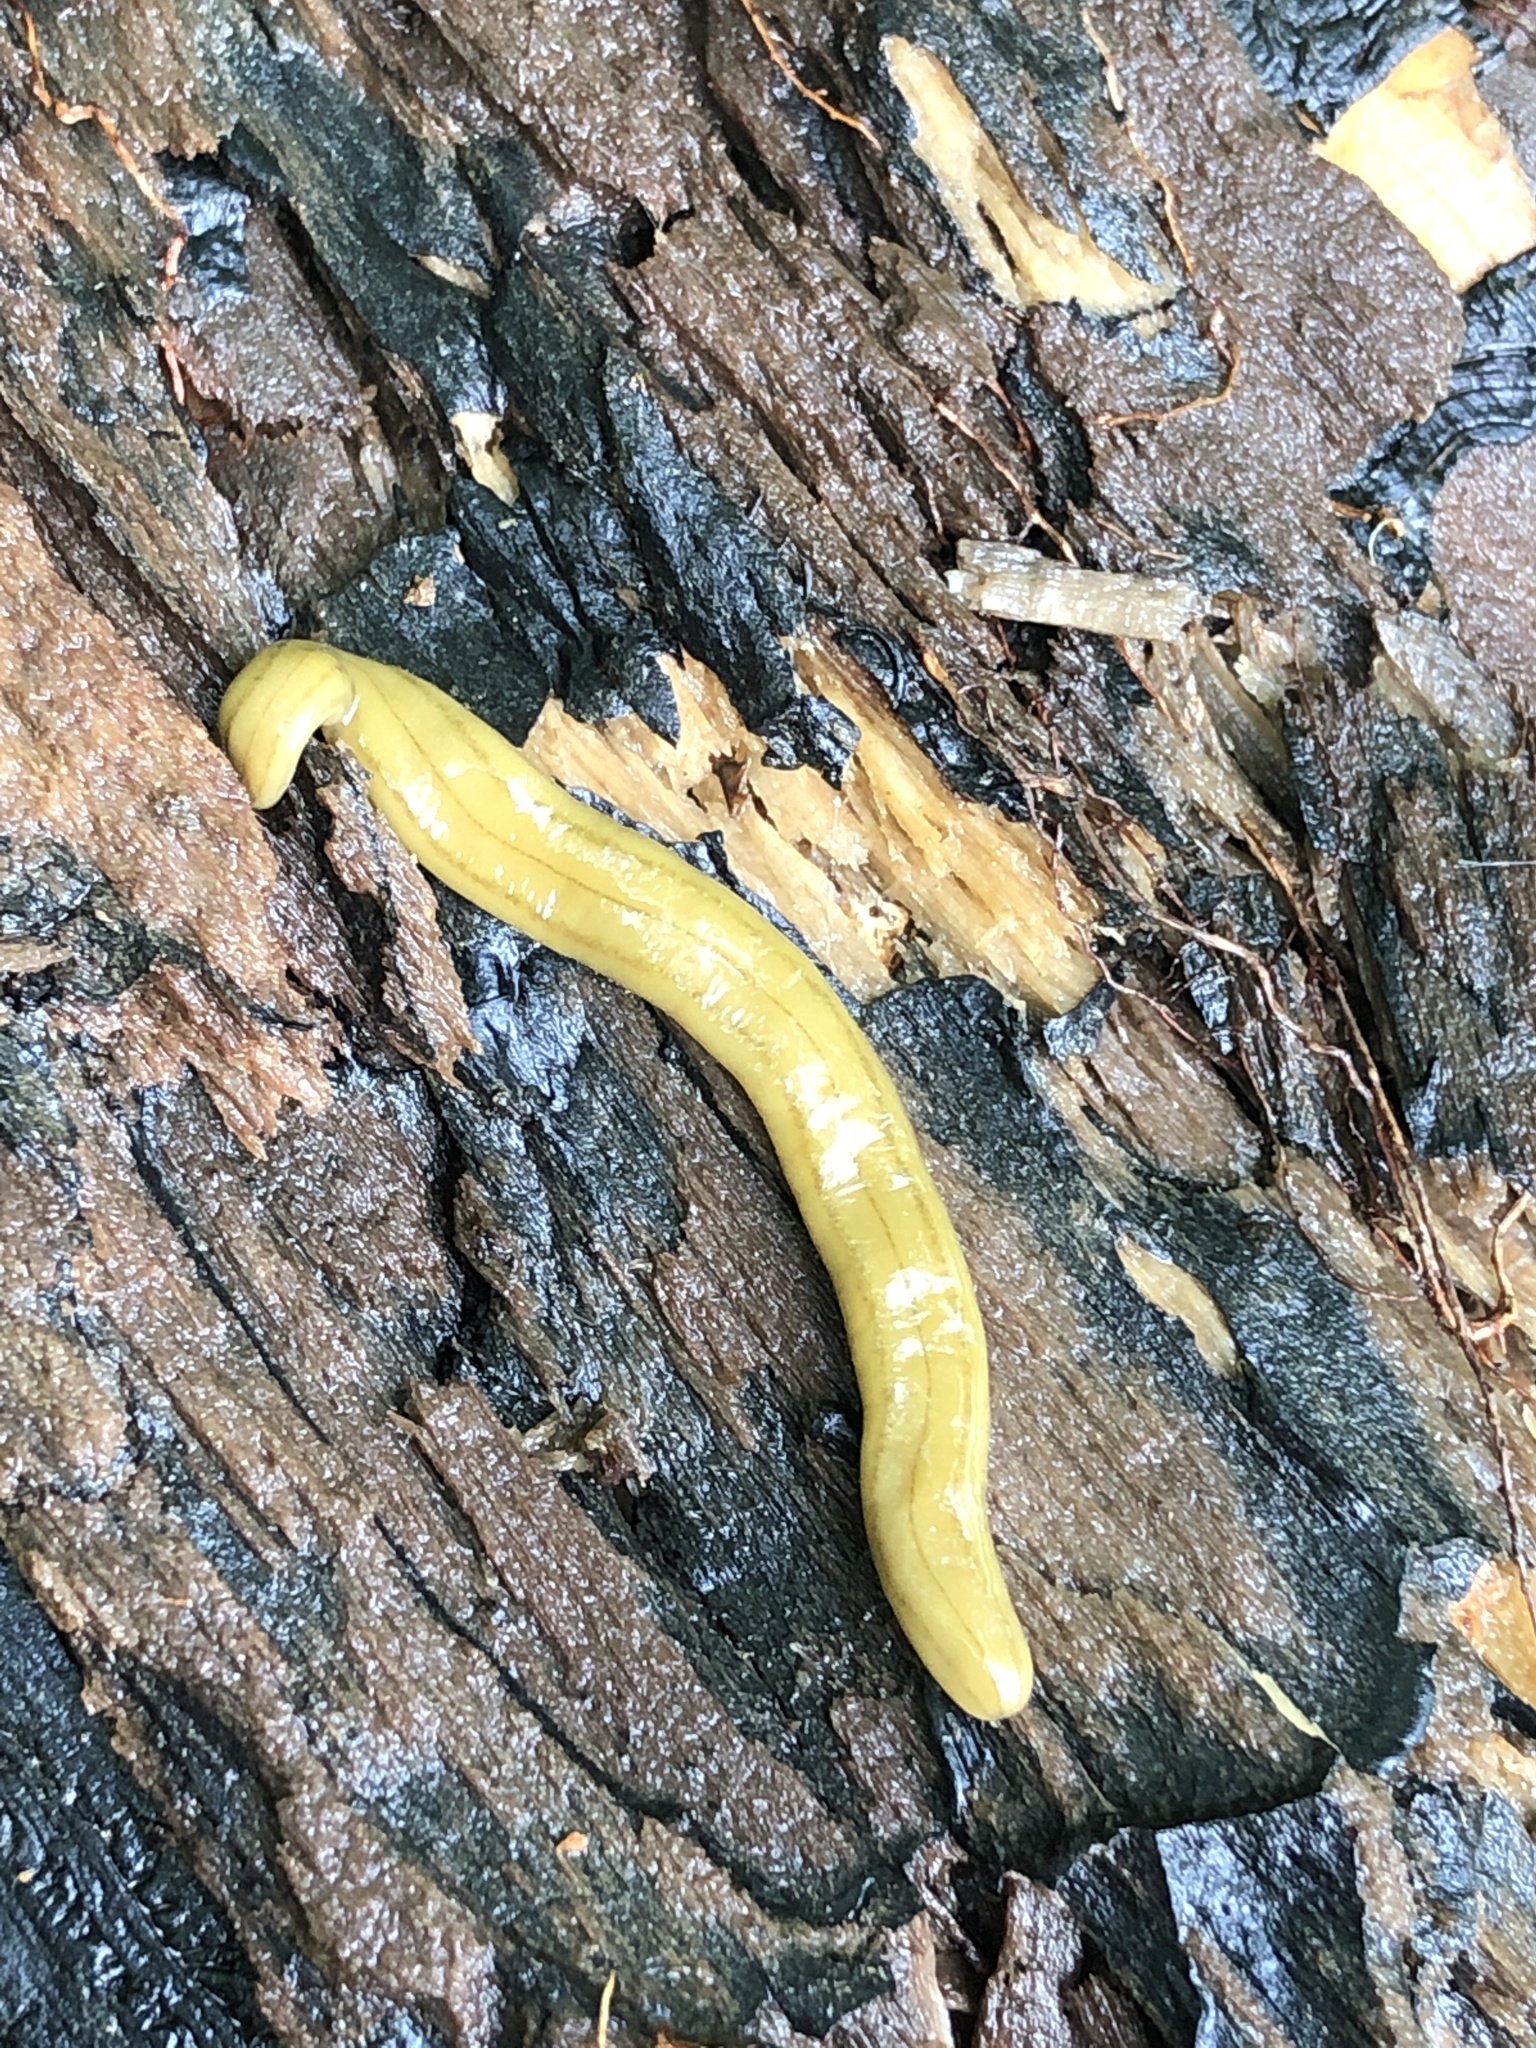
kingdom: Animalia
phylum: Platyhelminthes
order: Tricladida
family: Geoplanidae
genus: Diversibipalium
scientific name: Diversibipalium multilineatum
